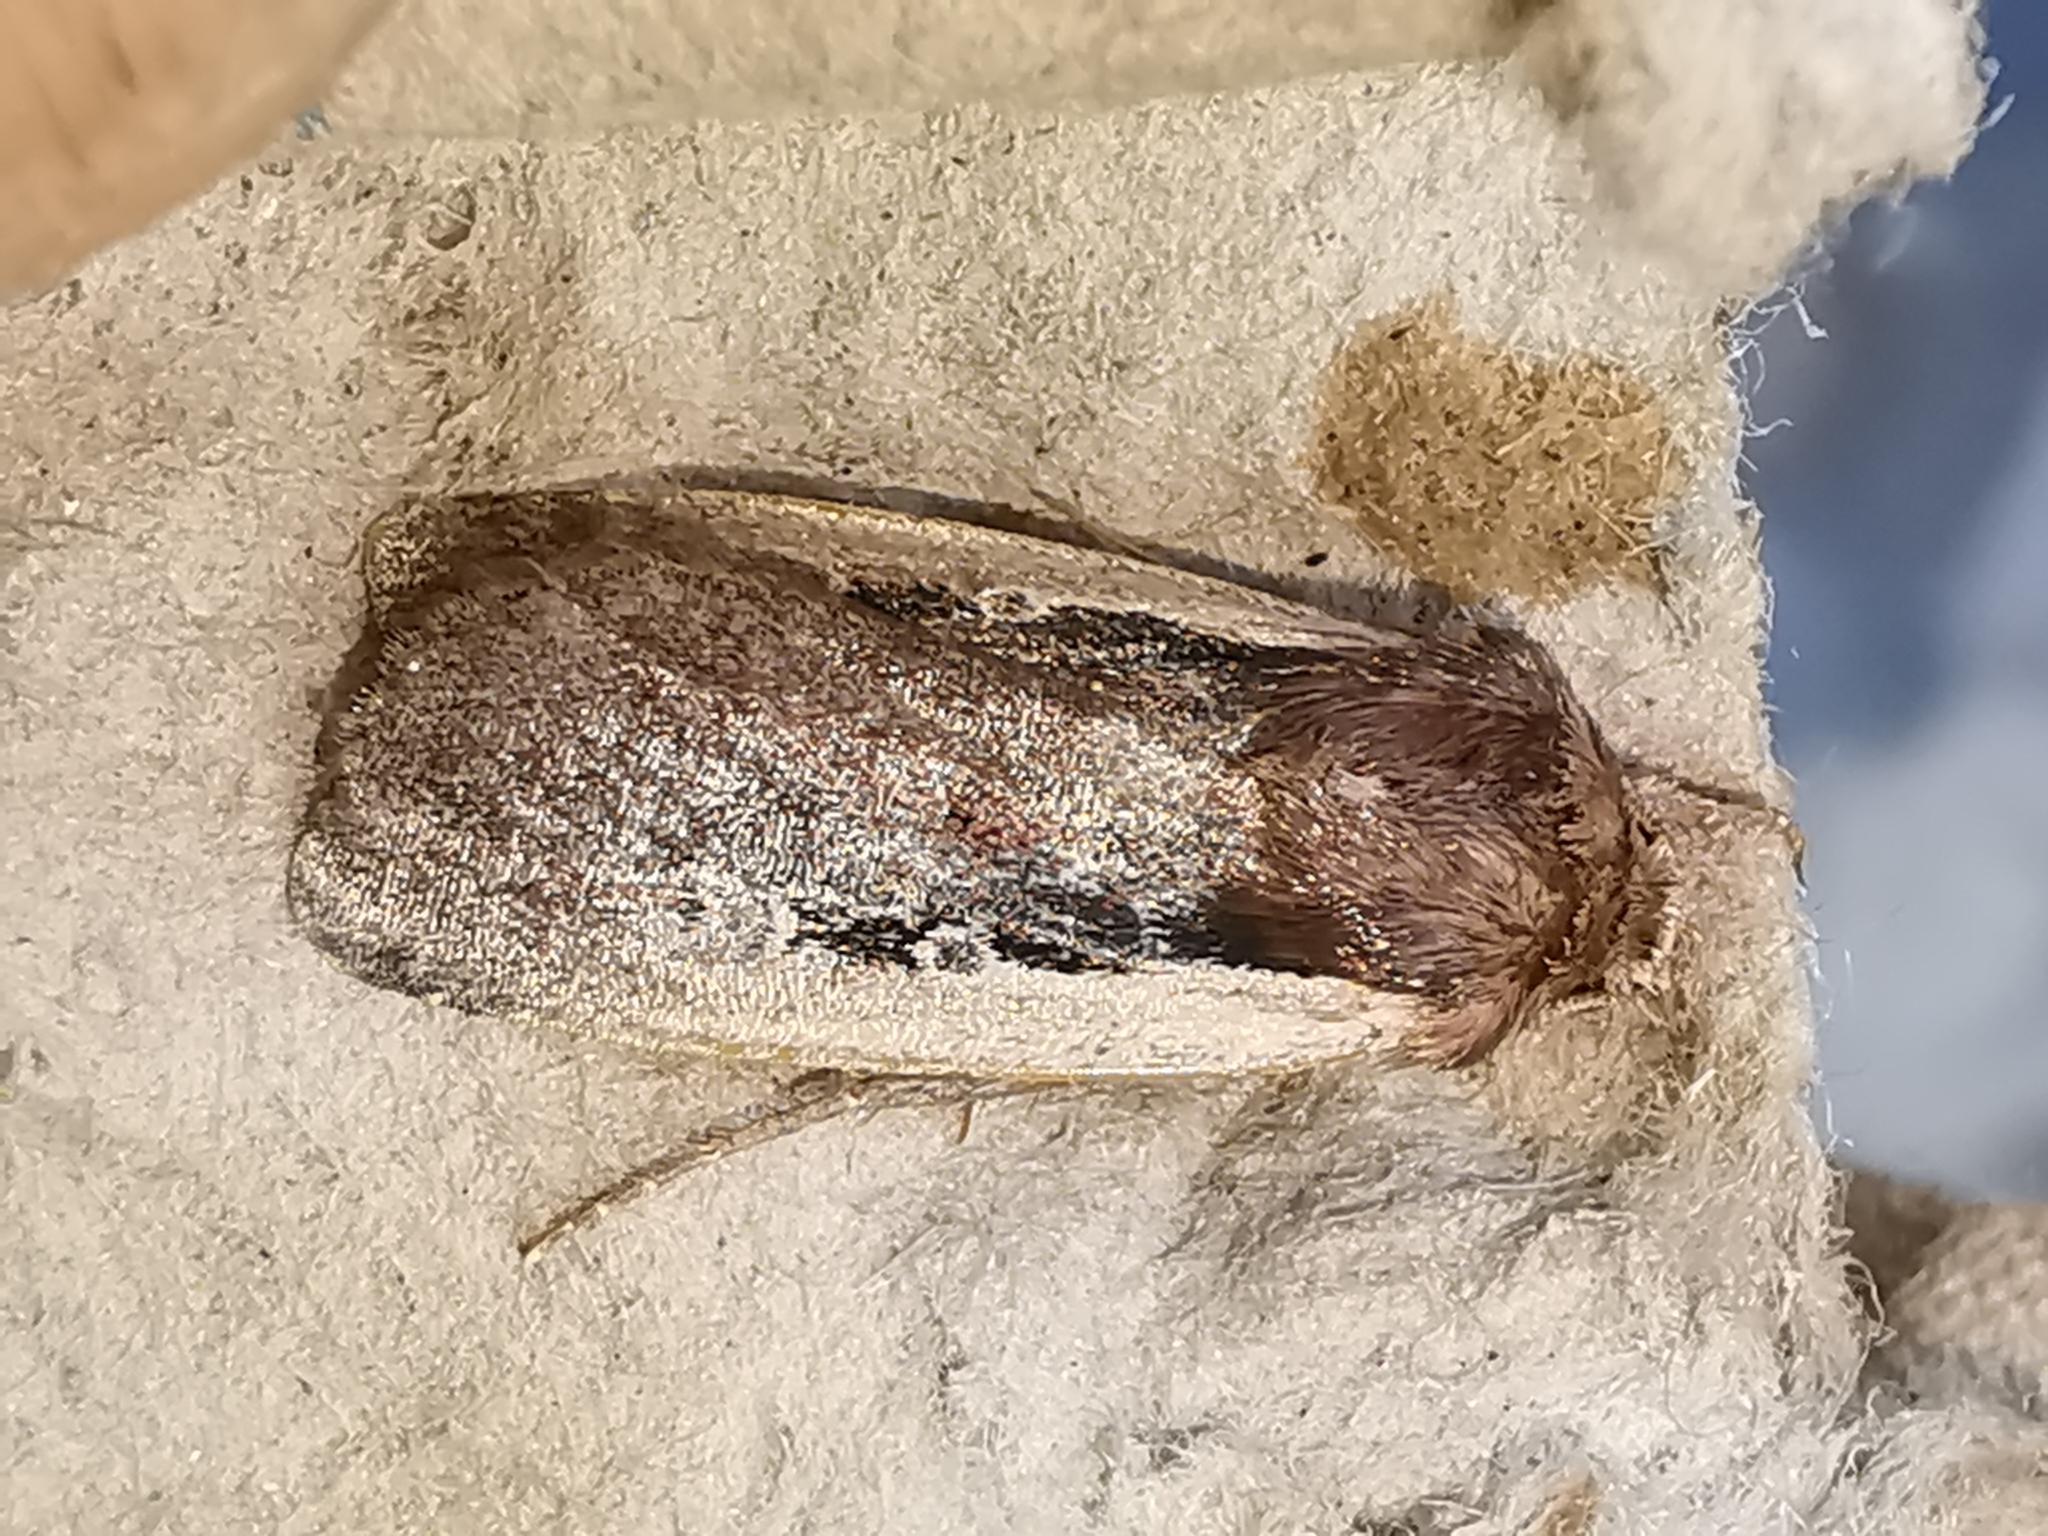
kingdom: Animalia
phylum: Arthropoda
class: Insecta
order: Lepidoptera
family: Noctuidae
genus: Ochropleura
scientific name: Ochropleura plecta
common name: Flame shoulder
